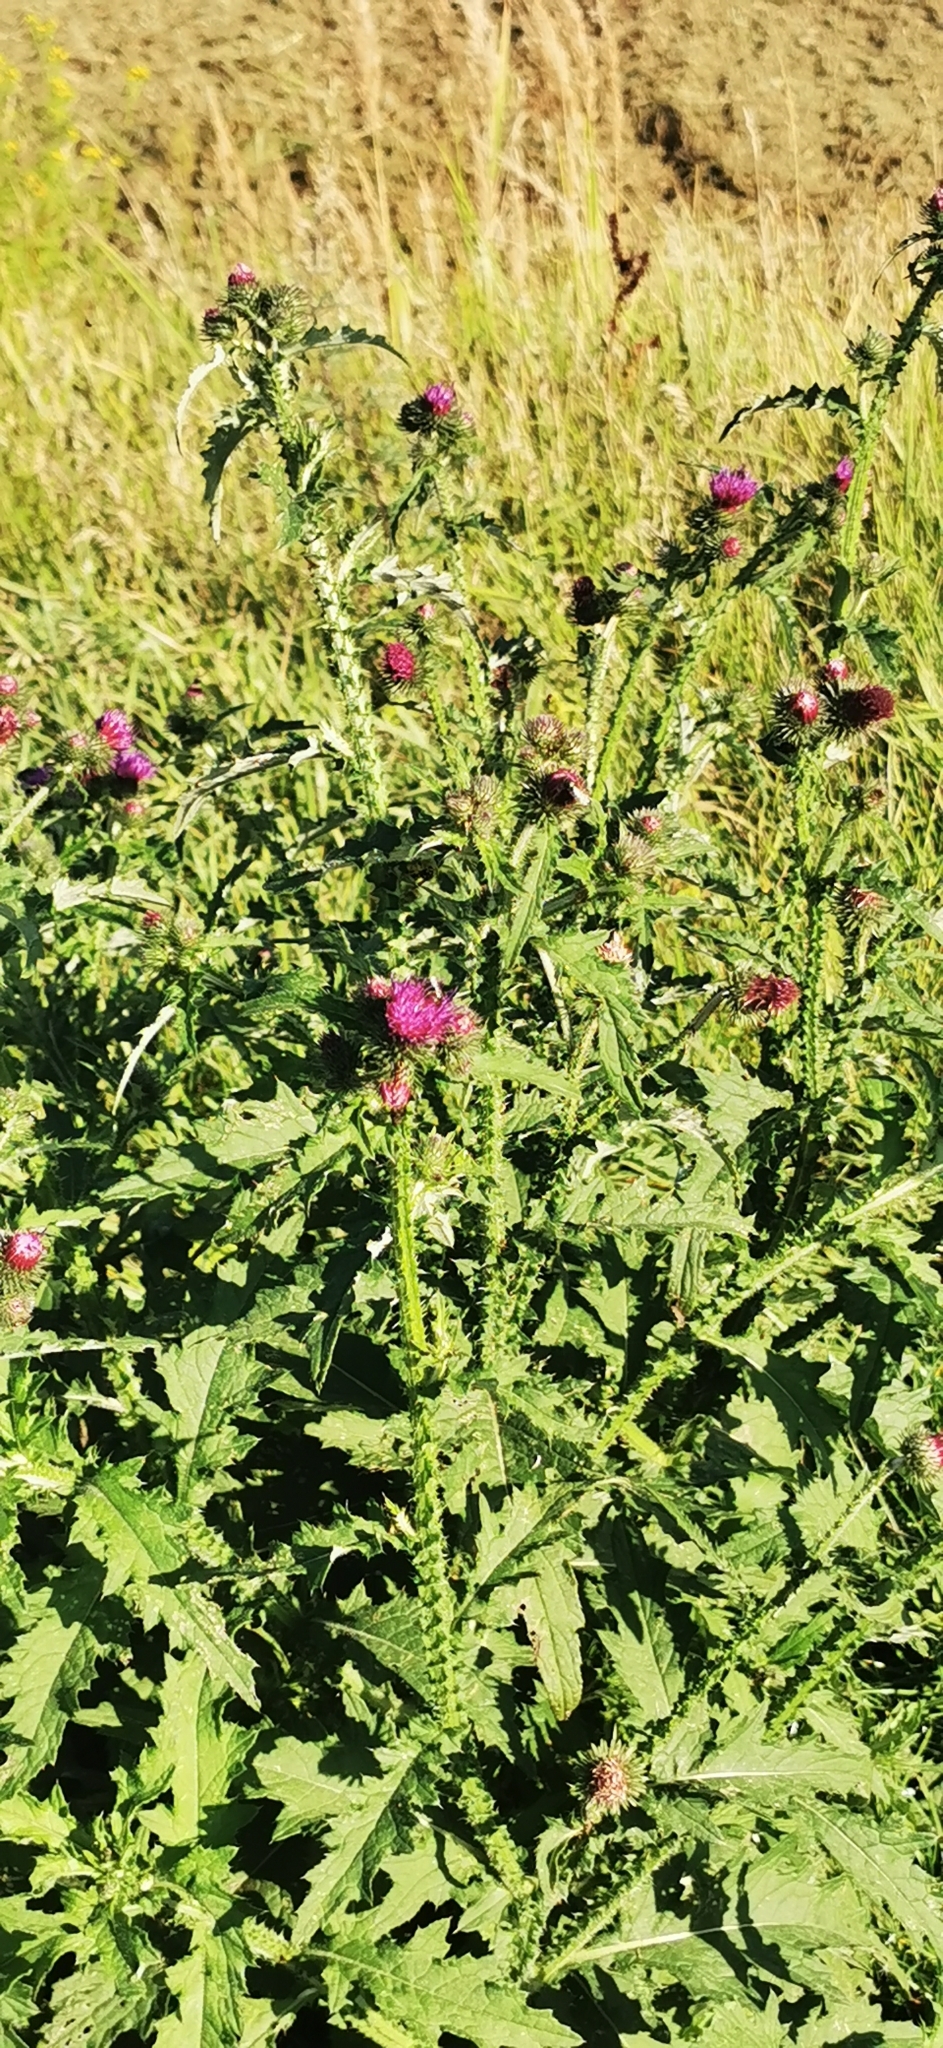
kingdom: Plantae
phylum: Tracheophyta
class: Magnoliopsida
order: Asterales
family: Asteraceae
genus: Carduus
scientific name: Carduus crispus
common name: Welted thistle
